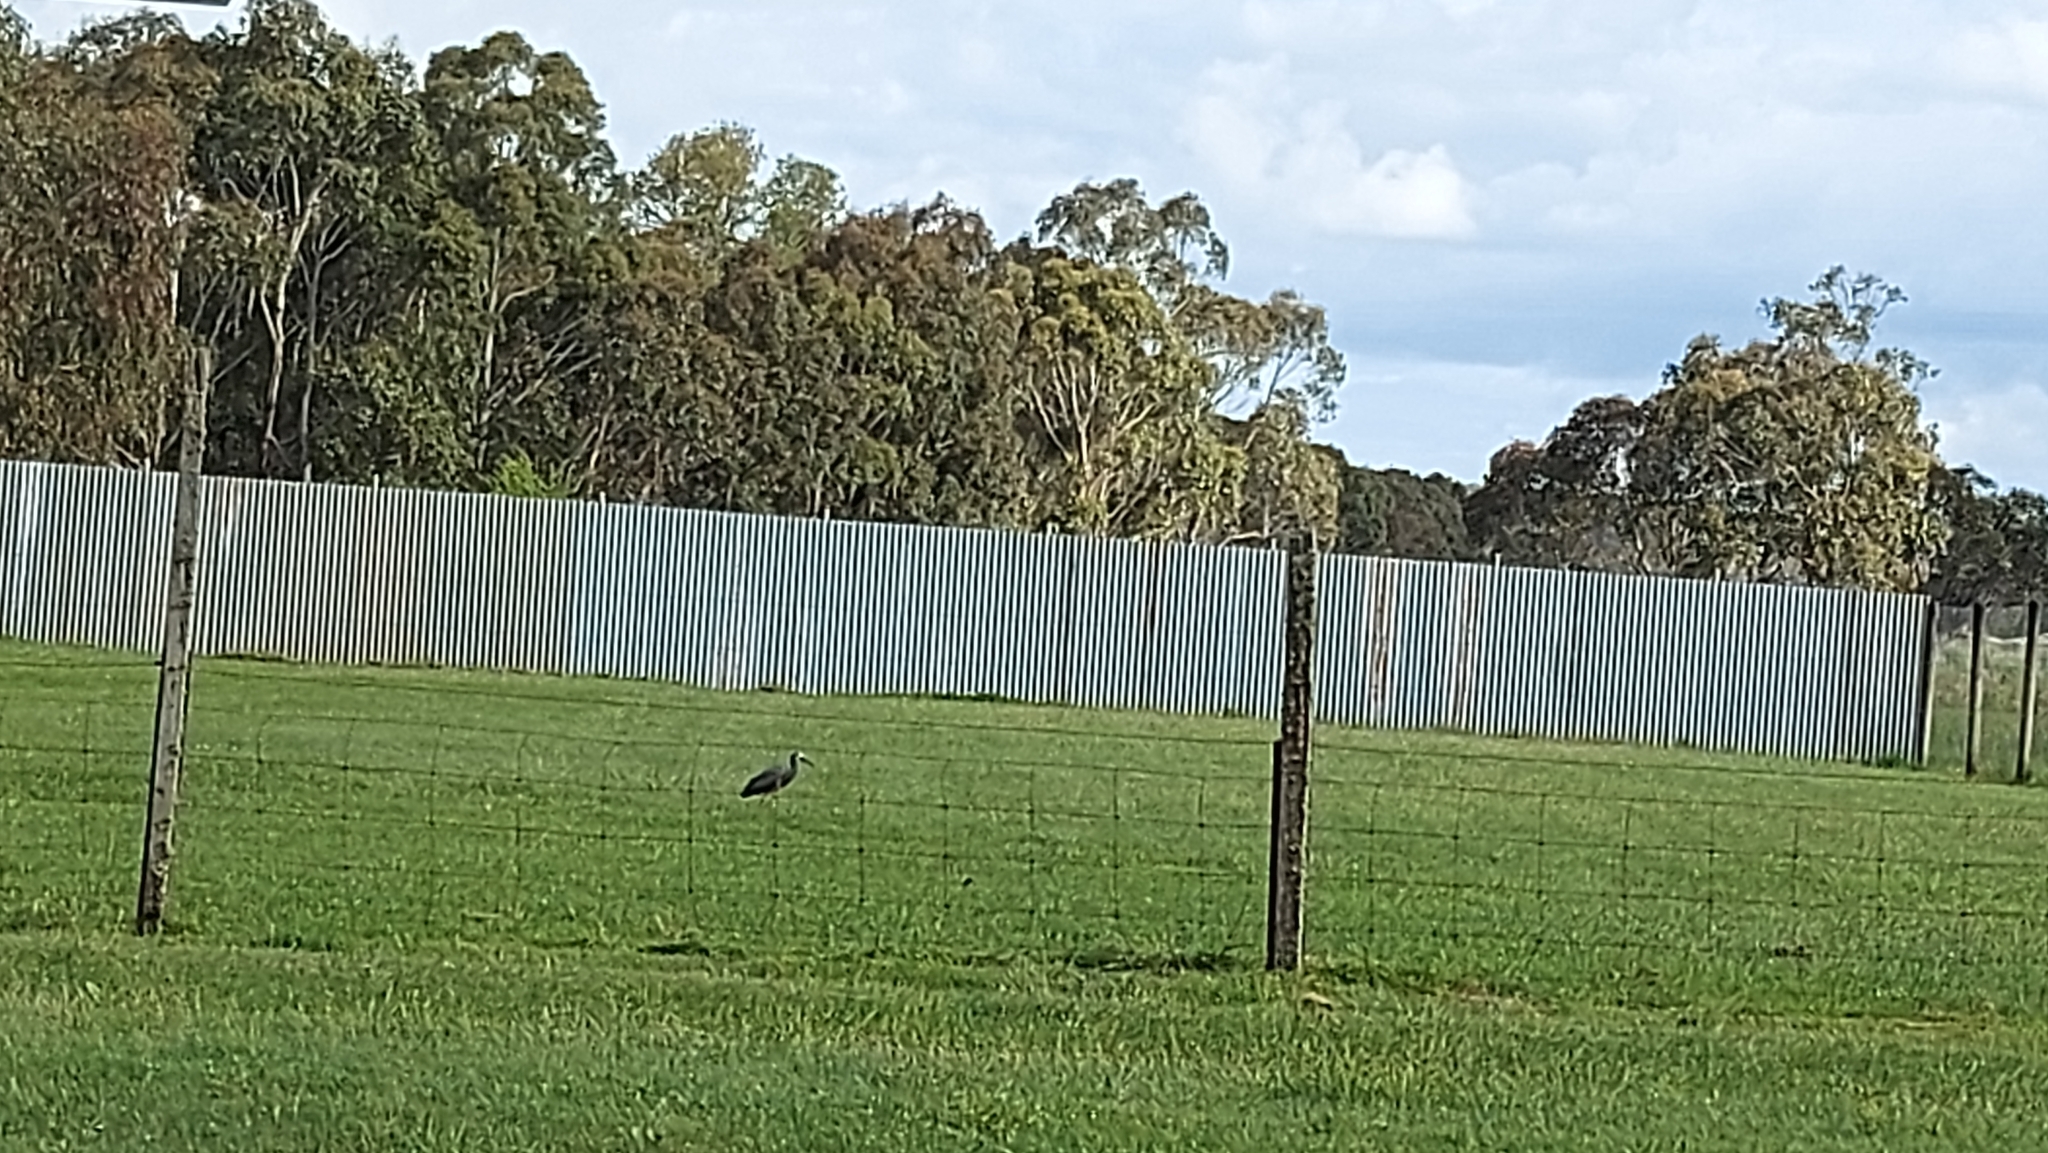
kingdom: Animalia
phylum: Chordata
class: Aves
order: Pelecaniformes
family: Ardeidae
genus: Egretta
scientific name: Egretta novaehollandiae
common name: White-faced heron
